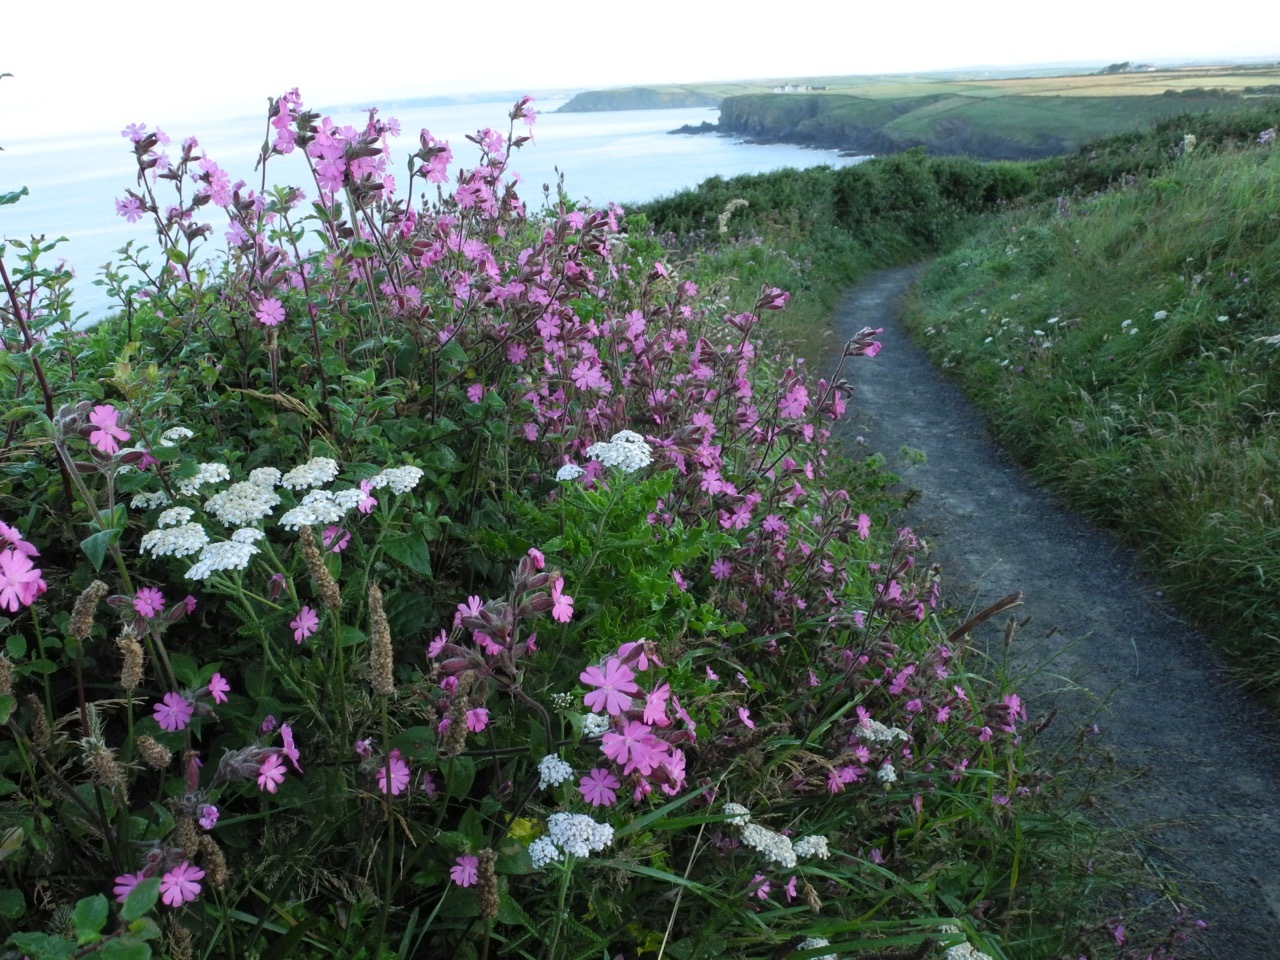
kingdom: Plantae
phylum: Tracheophyta
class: Magnoliopsida
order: Caryophyllales
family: Caryophyllaceae
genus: Silene
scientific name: Silene dioica
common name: Red campion
